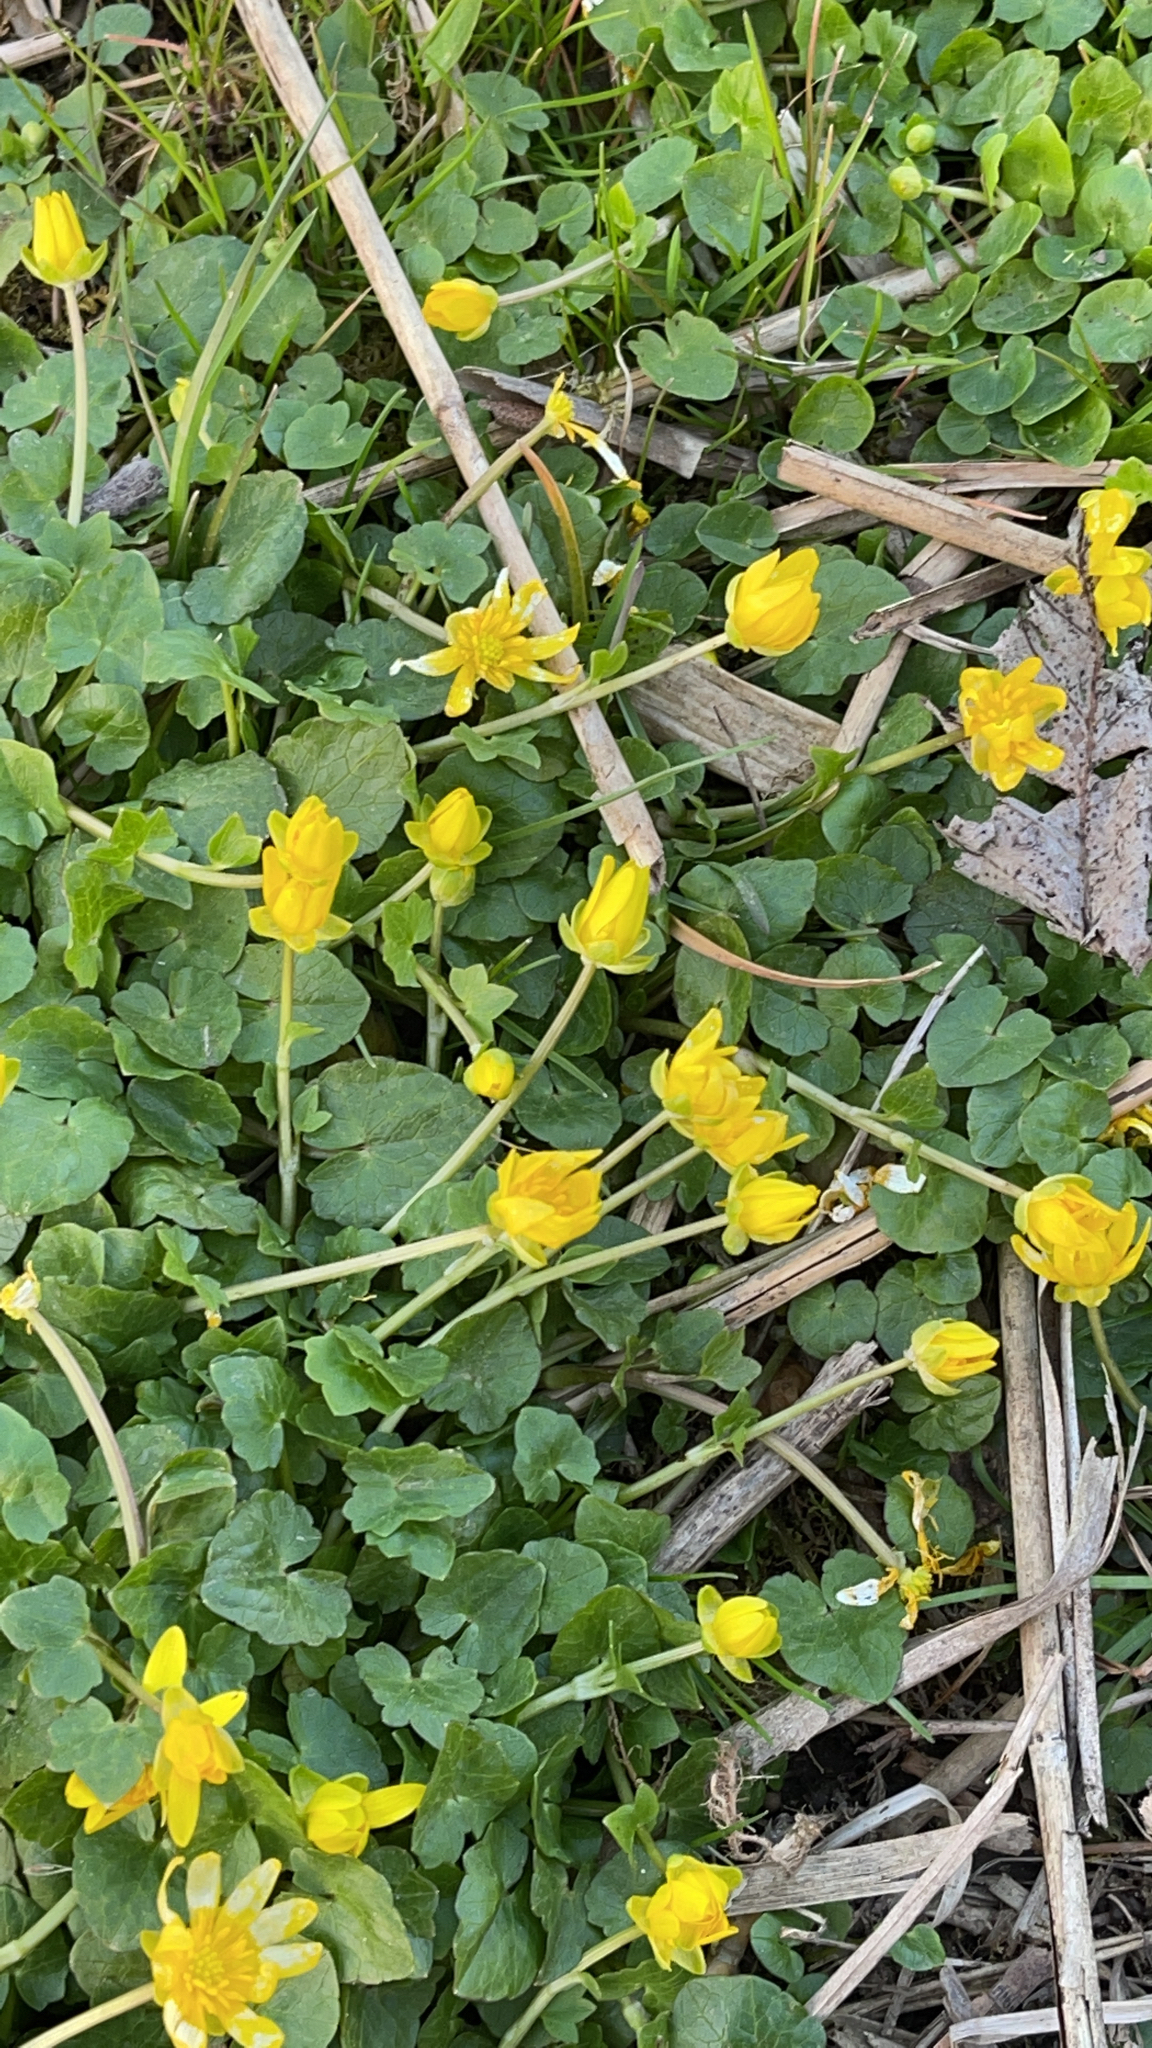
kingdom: Plantae
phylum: Tracheophyta
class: Magnoliopsida
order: Ranunculales
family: Ranunculaceae
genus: Ficaria
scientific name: Ficaria verna
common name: Lesser celandine
